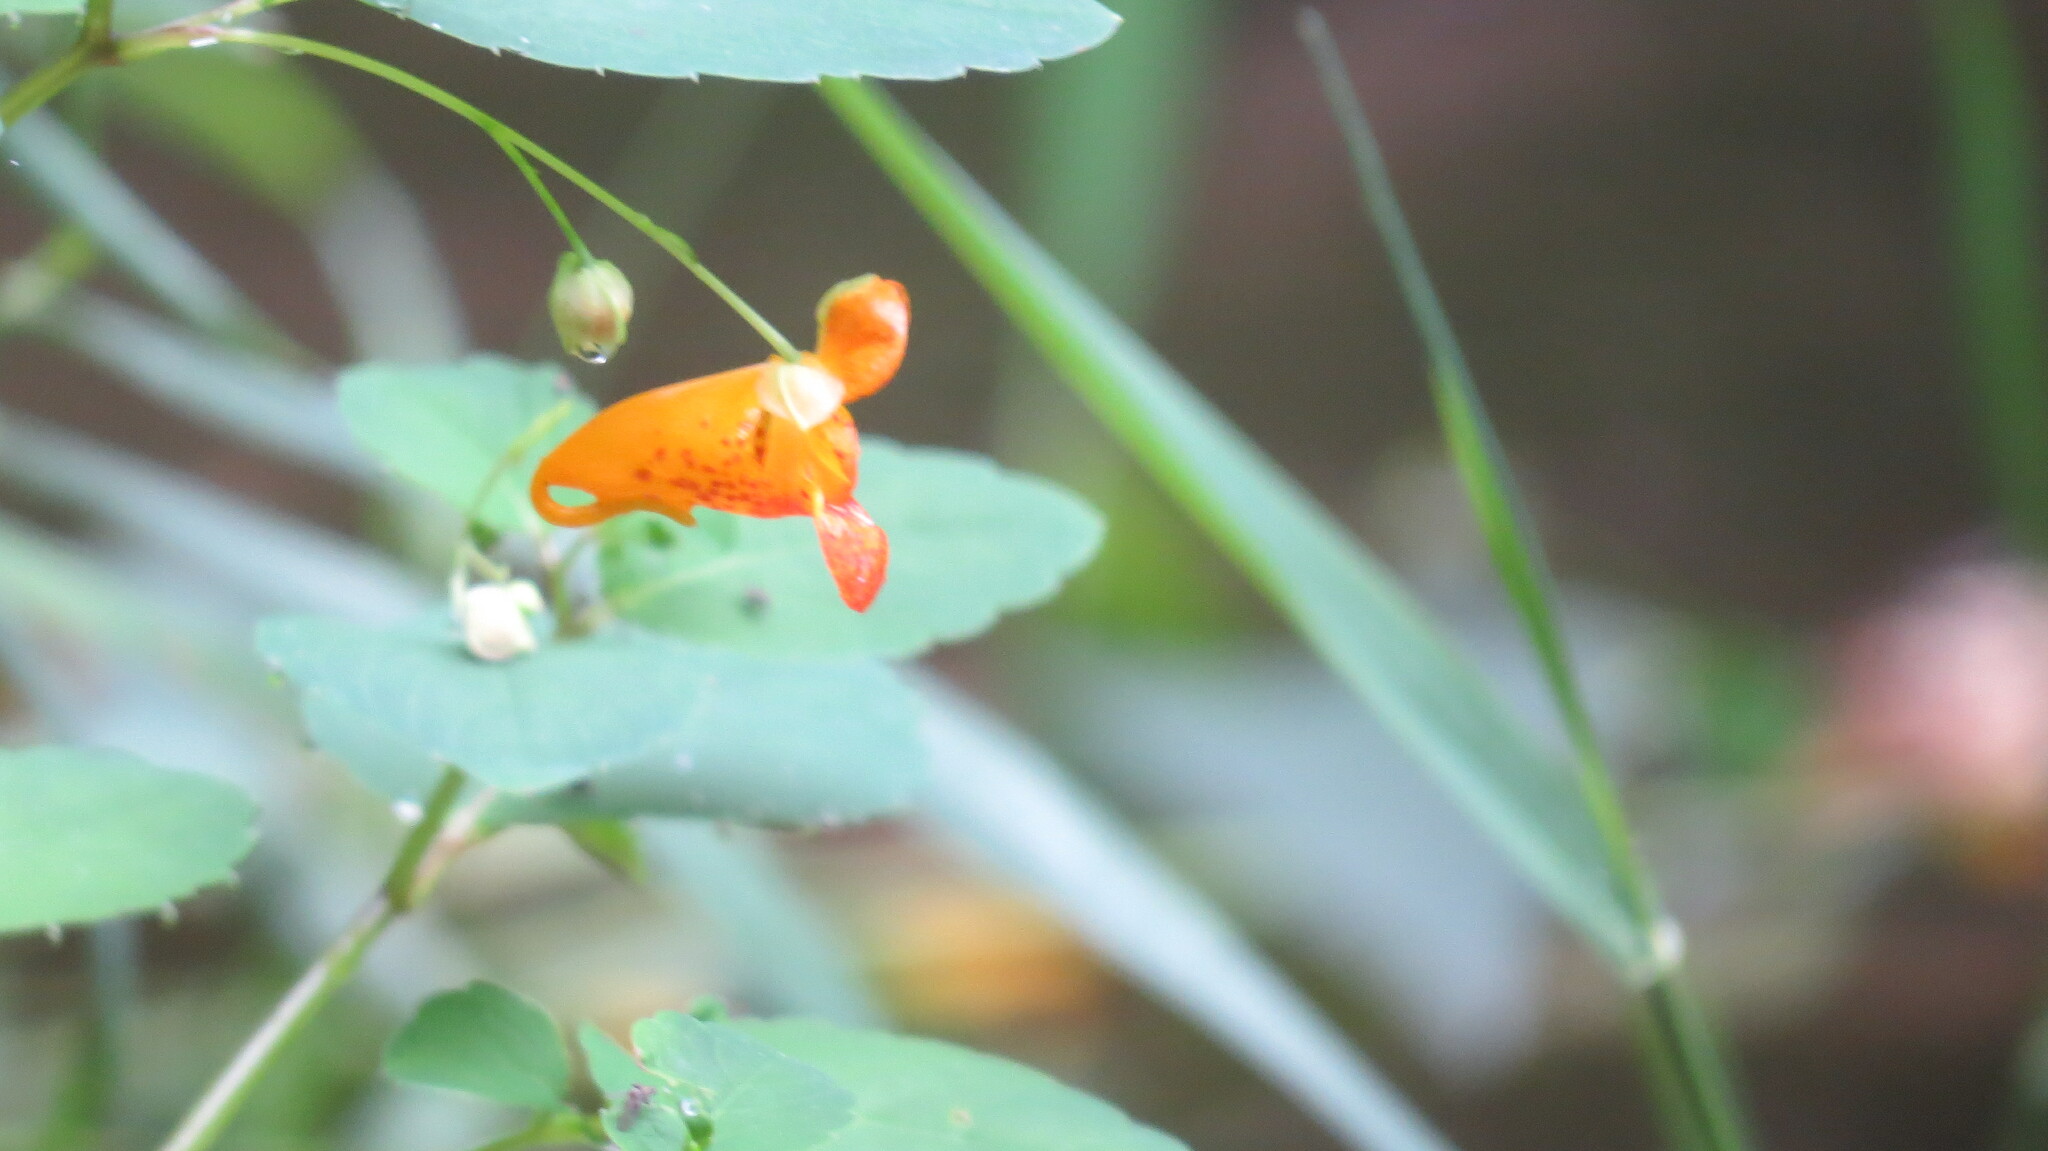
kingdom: Plantae
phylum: Tracheophyta
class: Magnoliopsida
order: Ericales
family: Balsaminaceae
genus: Impatiens
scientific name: Impatiens capensis
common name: Orange balsam
